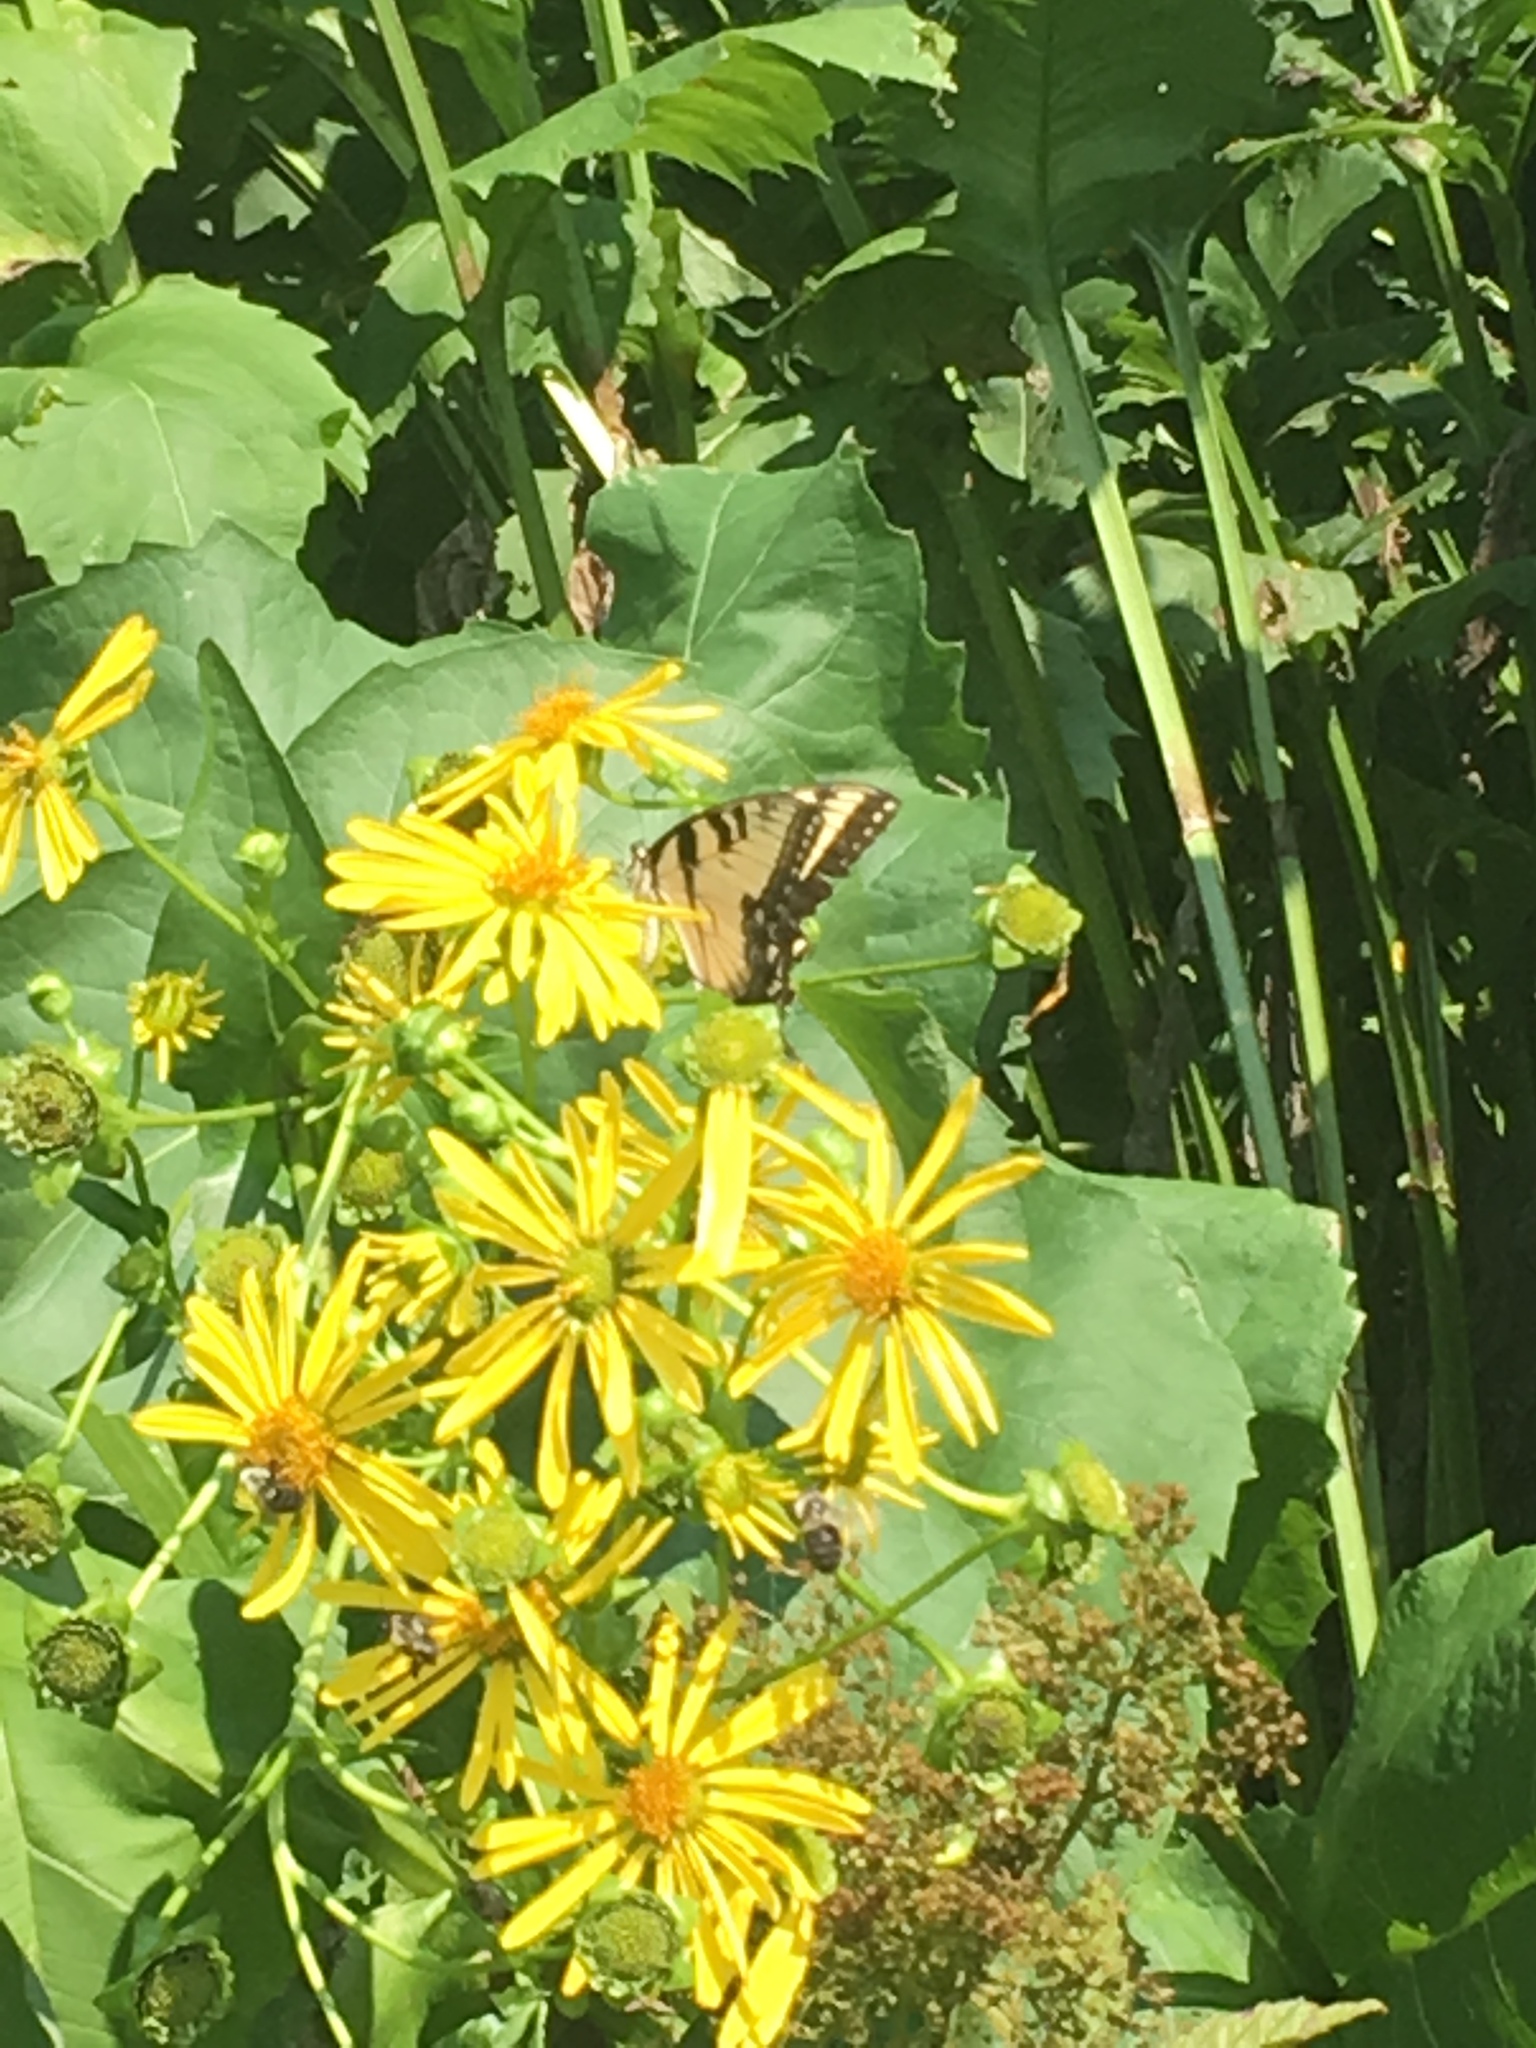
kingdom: Animalia
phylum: Arthropoda
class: Insecta
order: Lepidoptera
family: Papilionidae
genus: Papilio
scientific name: Papilio glaucus
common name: Tiger swallowtail
